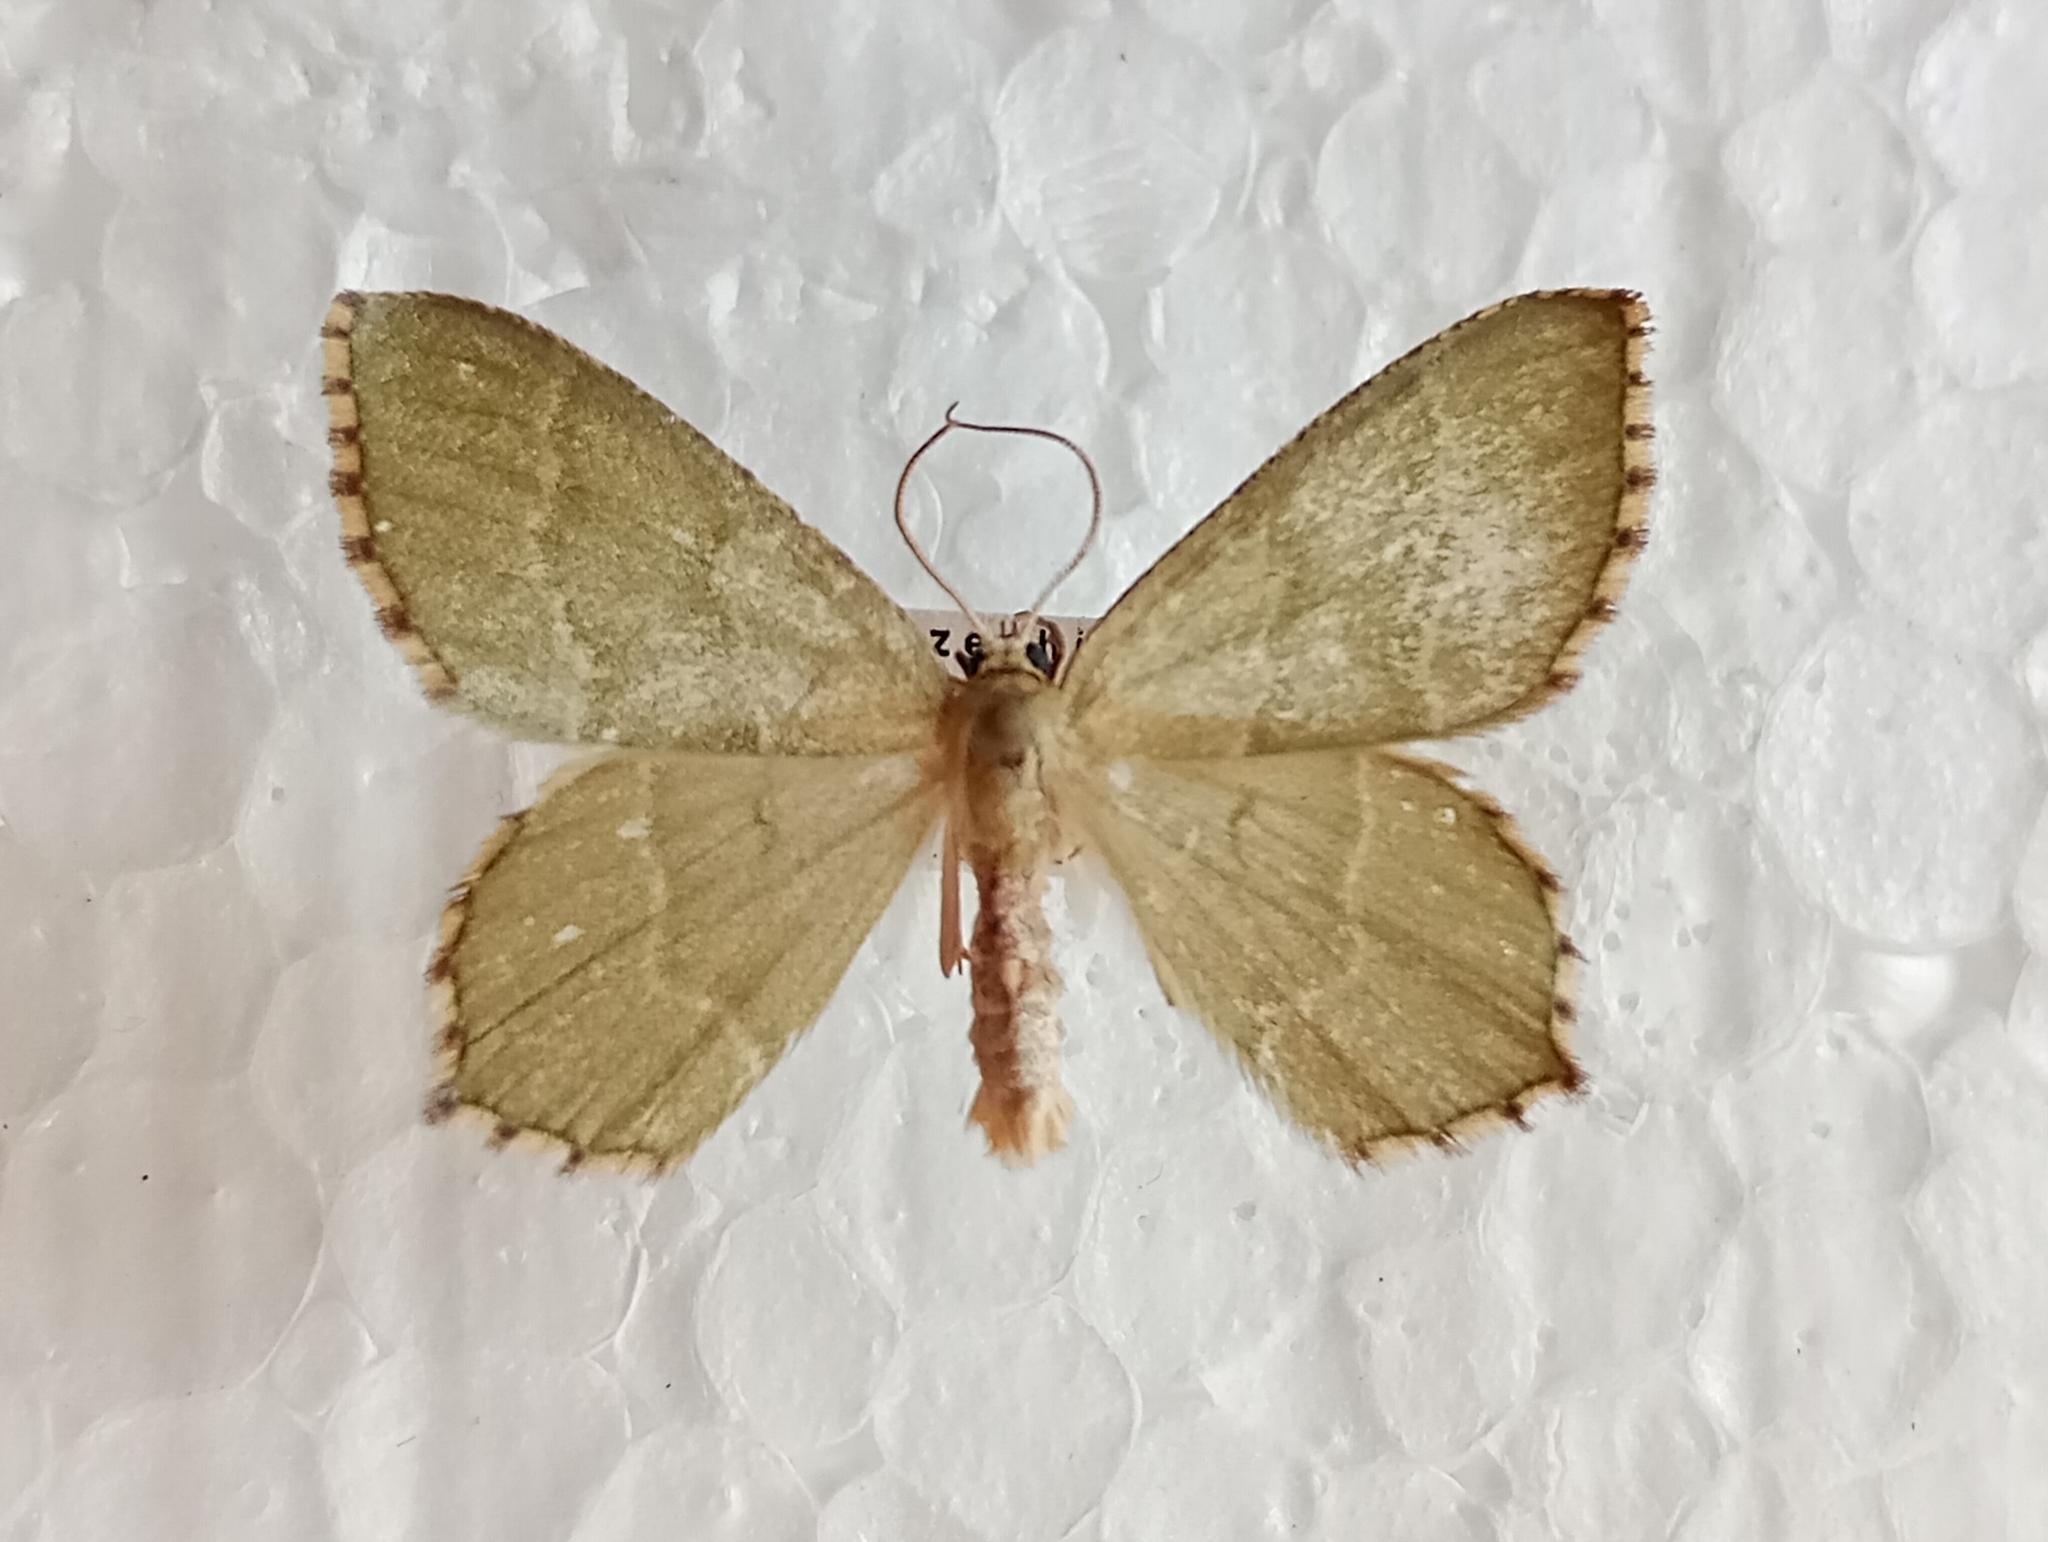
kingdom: Animalia
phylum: Arthropoda
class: Insecta
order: Lepidoptera
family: Geometridae
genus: Hemithea
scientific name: Hemithea aestivaria
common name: Common emerald
